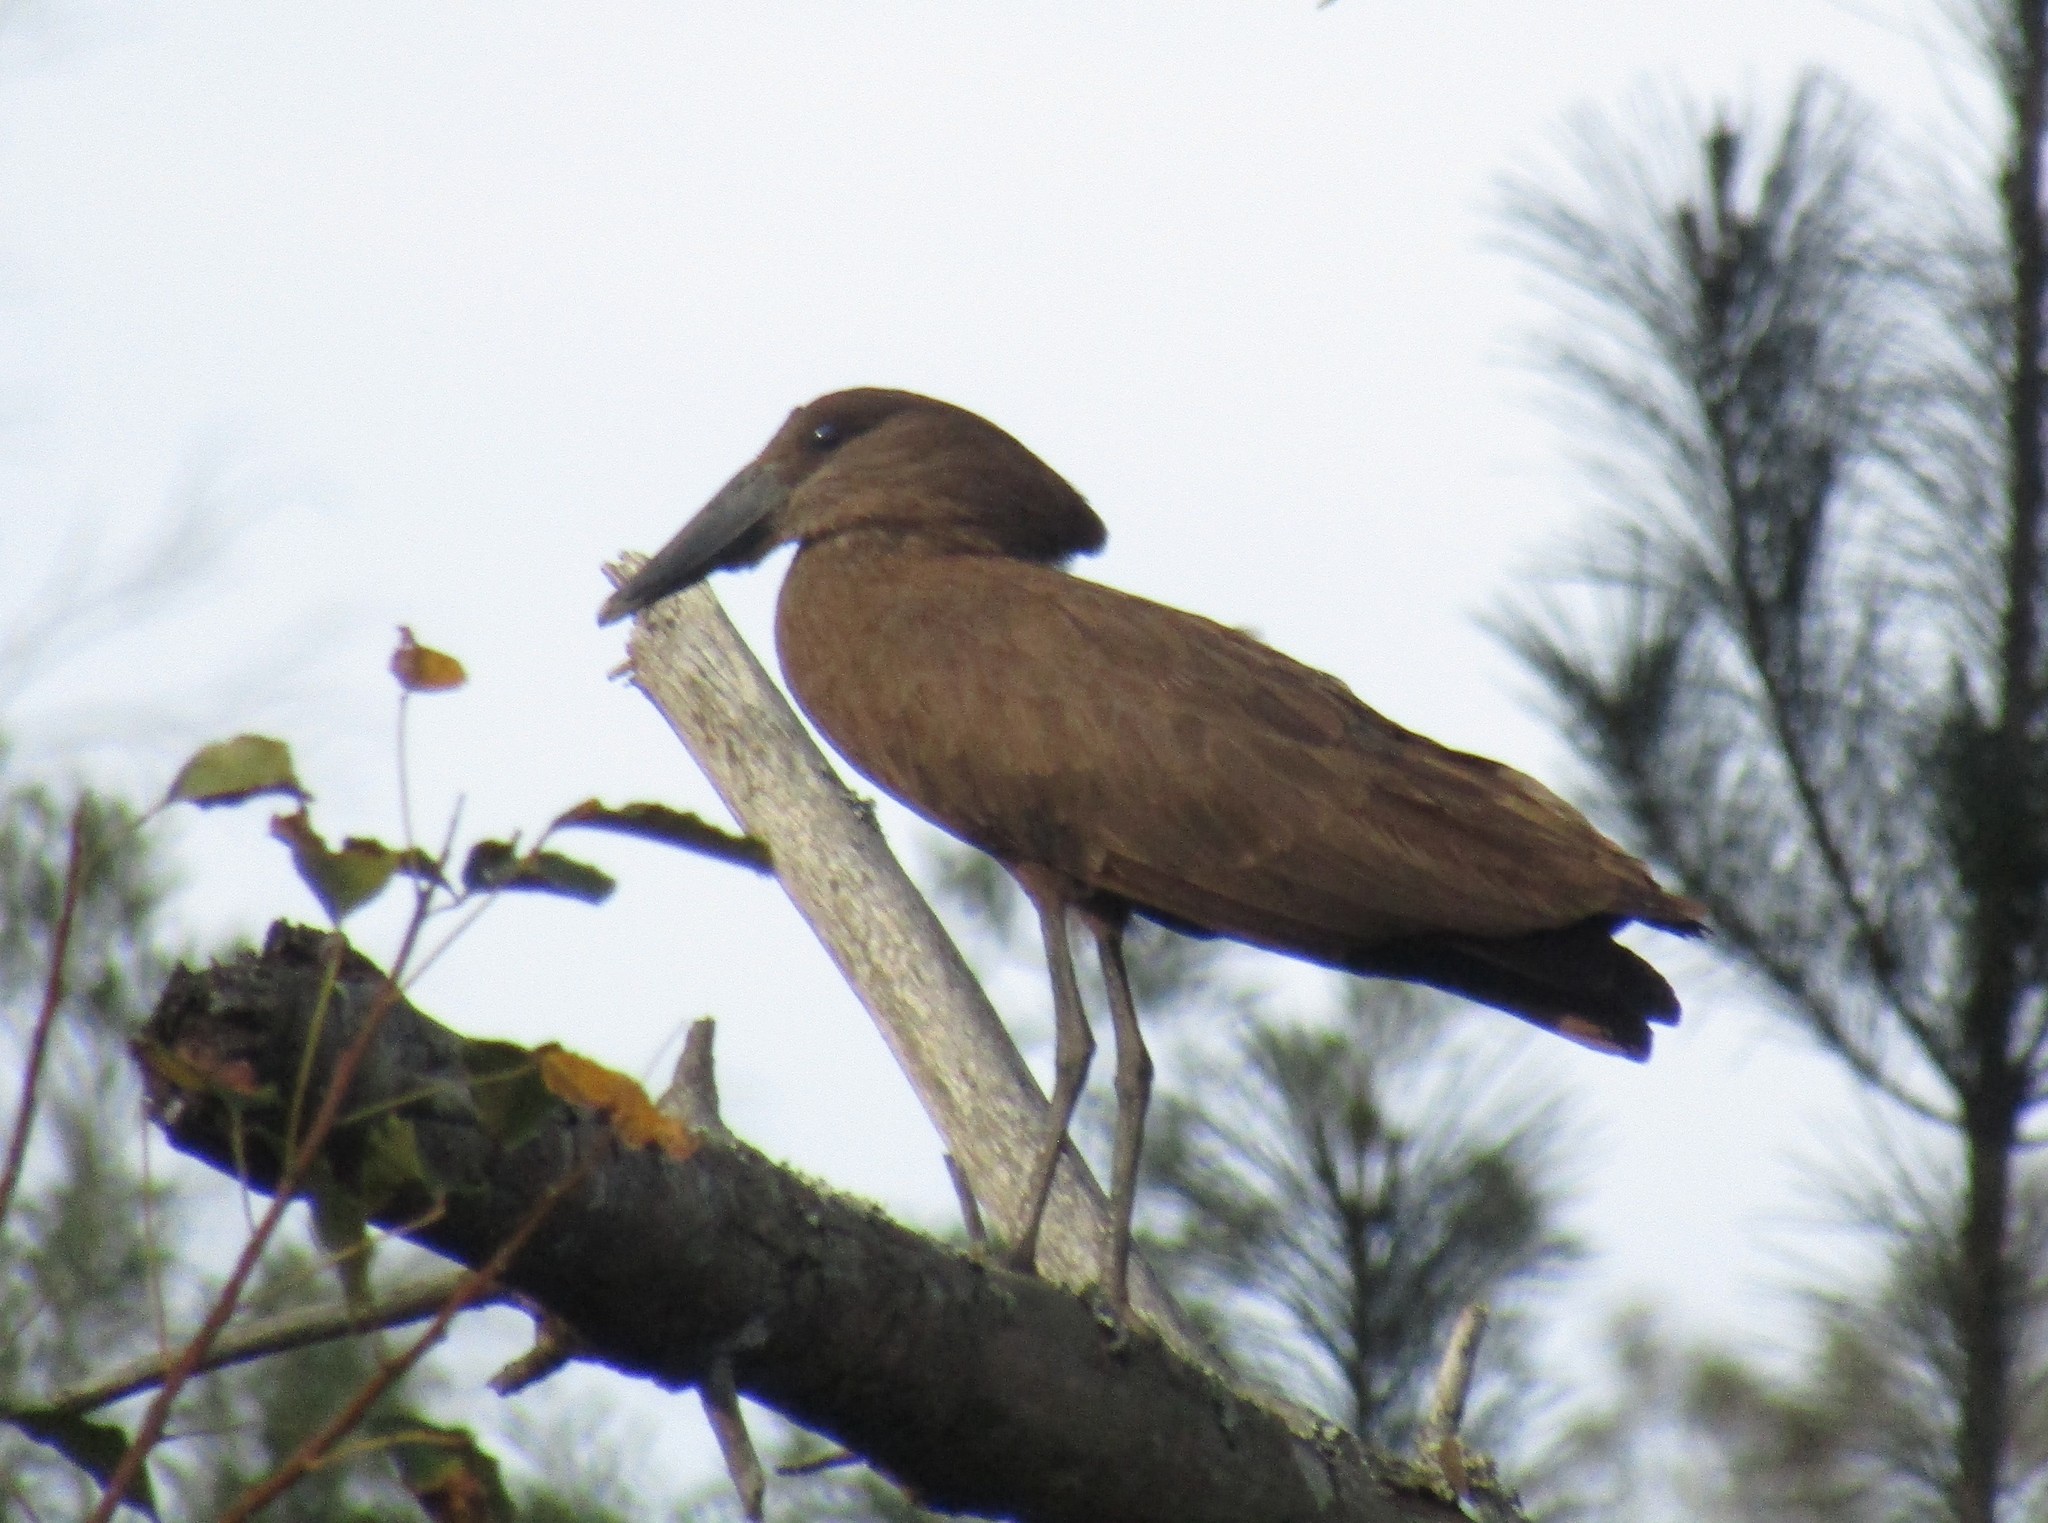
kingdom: Animalia
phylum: Chordata
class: Aves
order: Pelecaniformes
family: Scopidae
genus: Scopus
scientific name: Scopus umbretta
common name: Hamerkop
